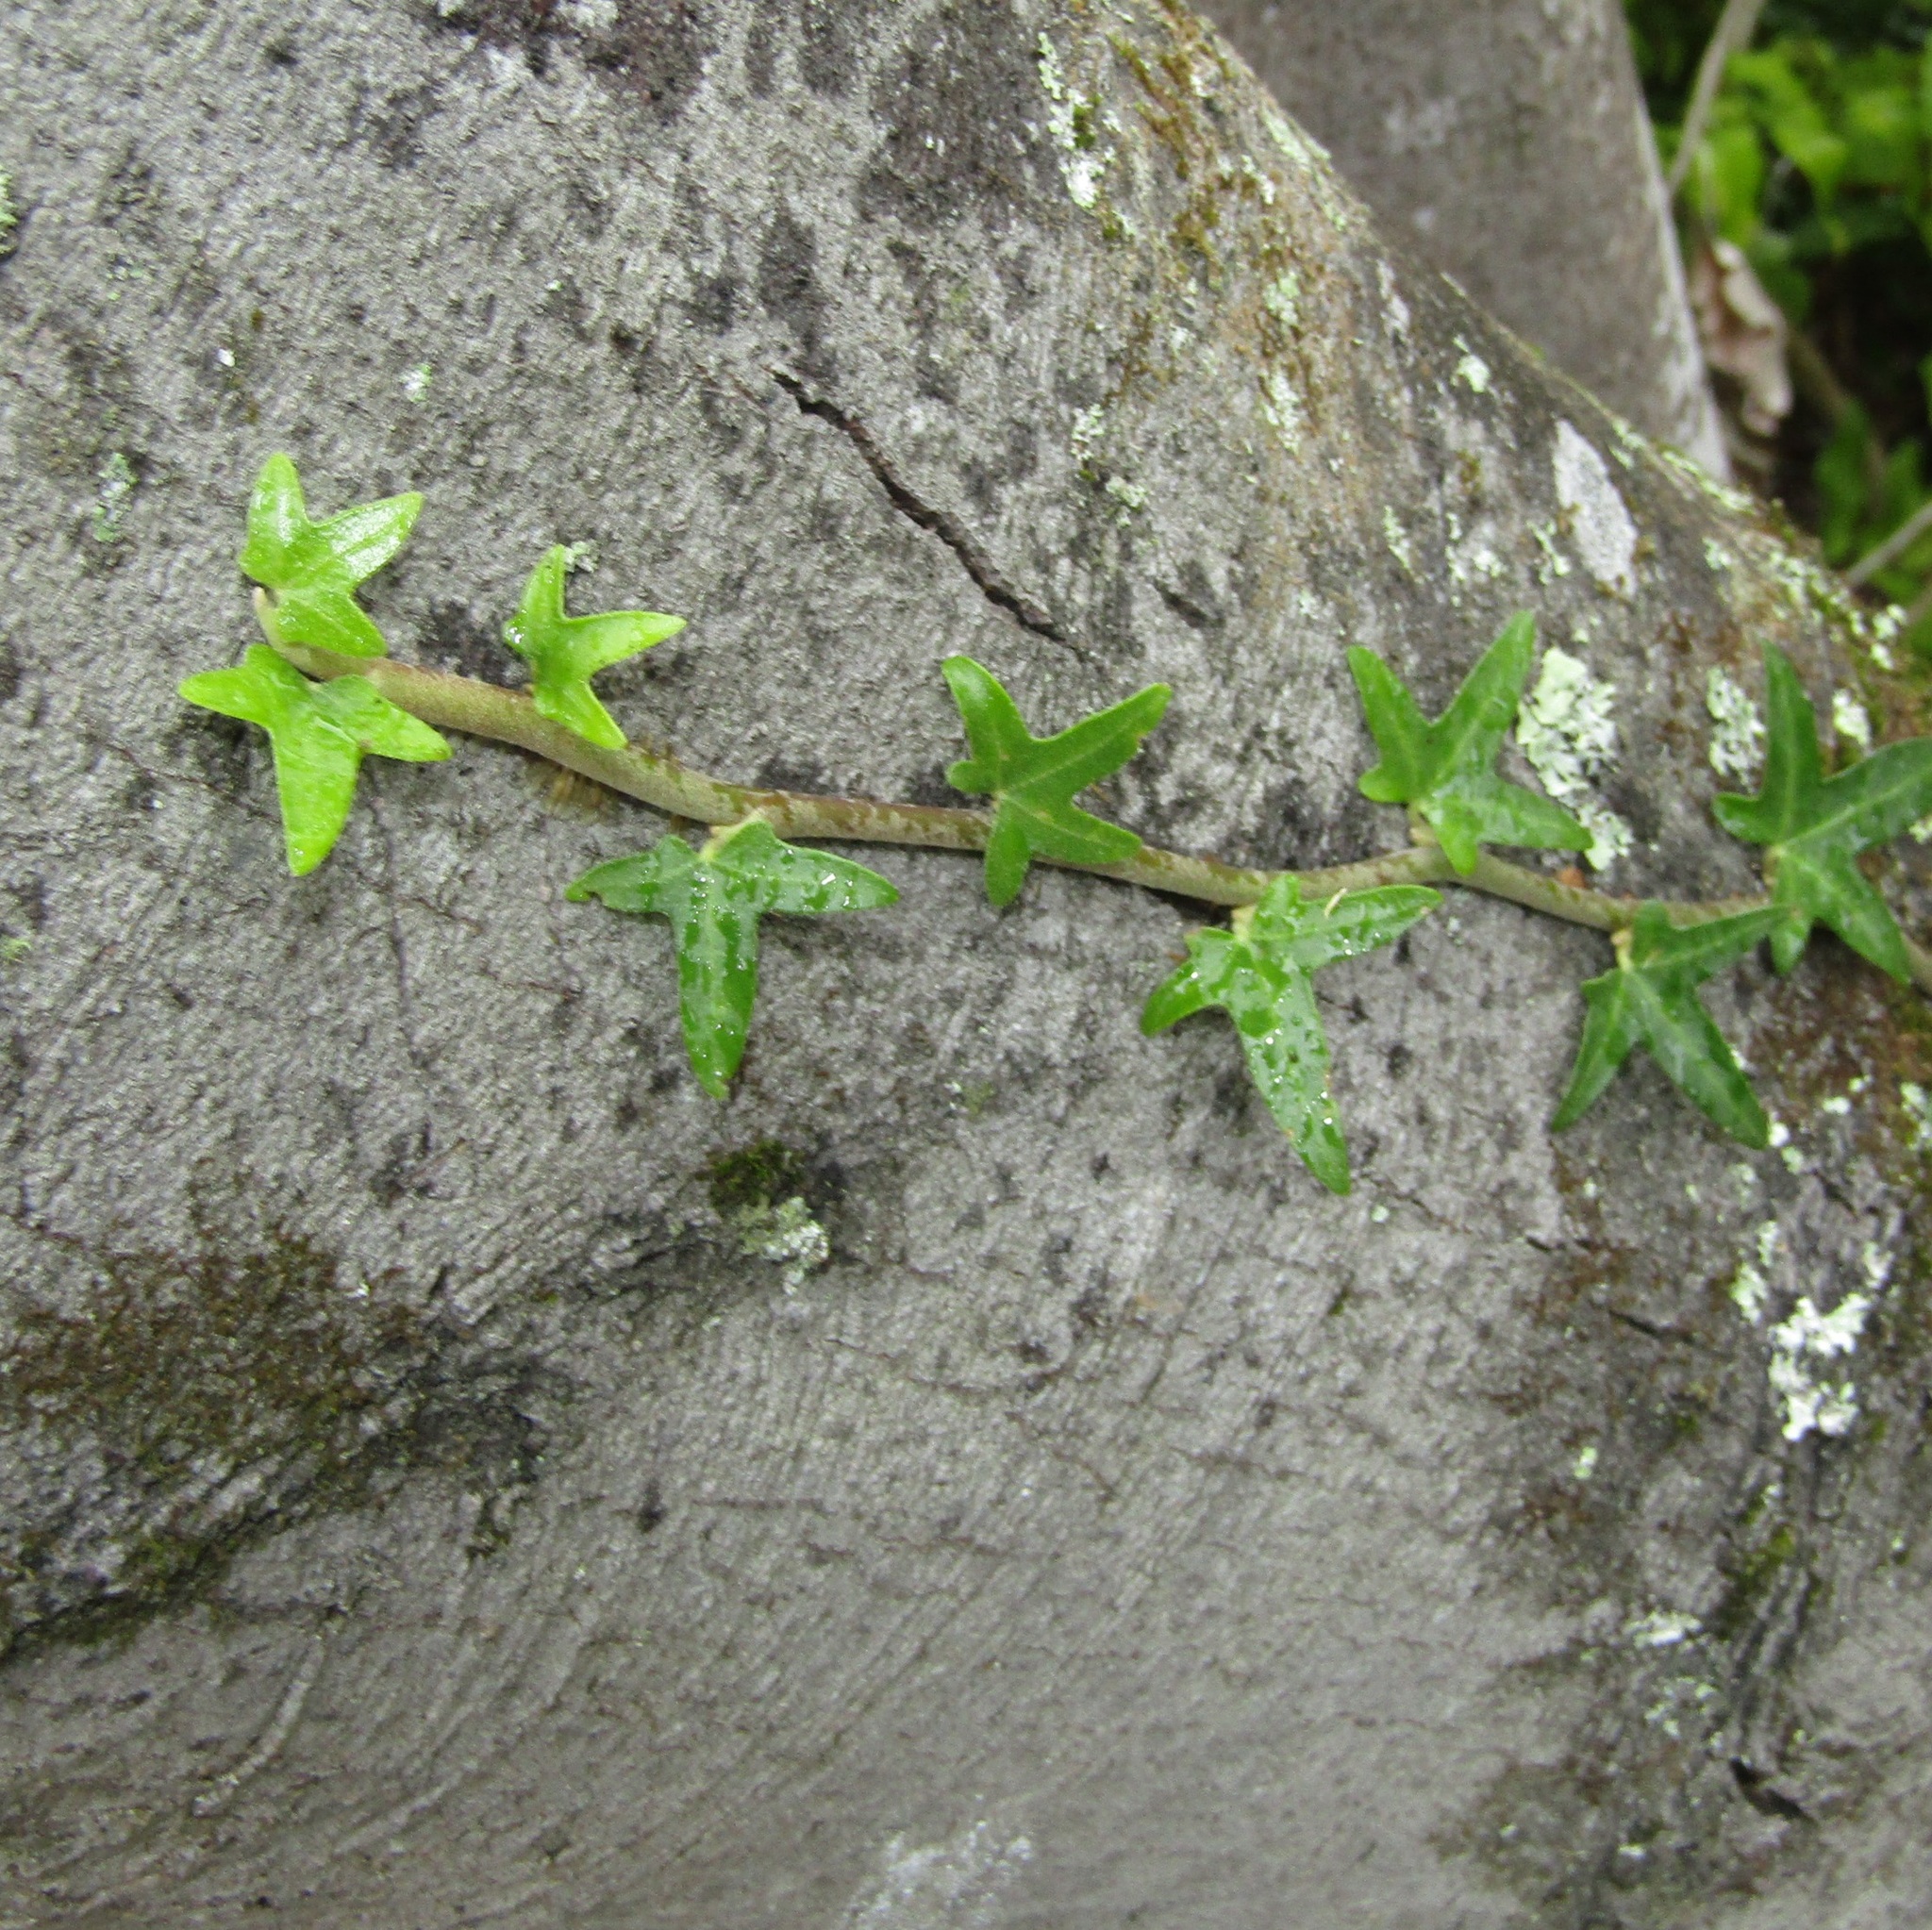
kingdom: Plantae
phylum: Tracheophyta
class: Magnoliopsida
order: Apiales
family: Araliaceae
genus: Hedera
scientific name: Hedera helix
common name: Ivy
